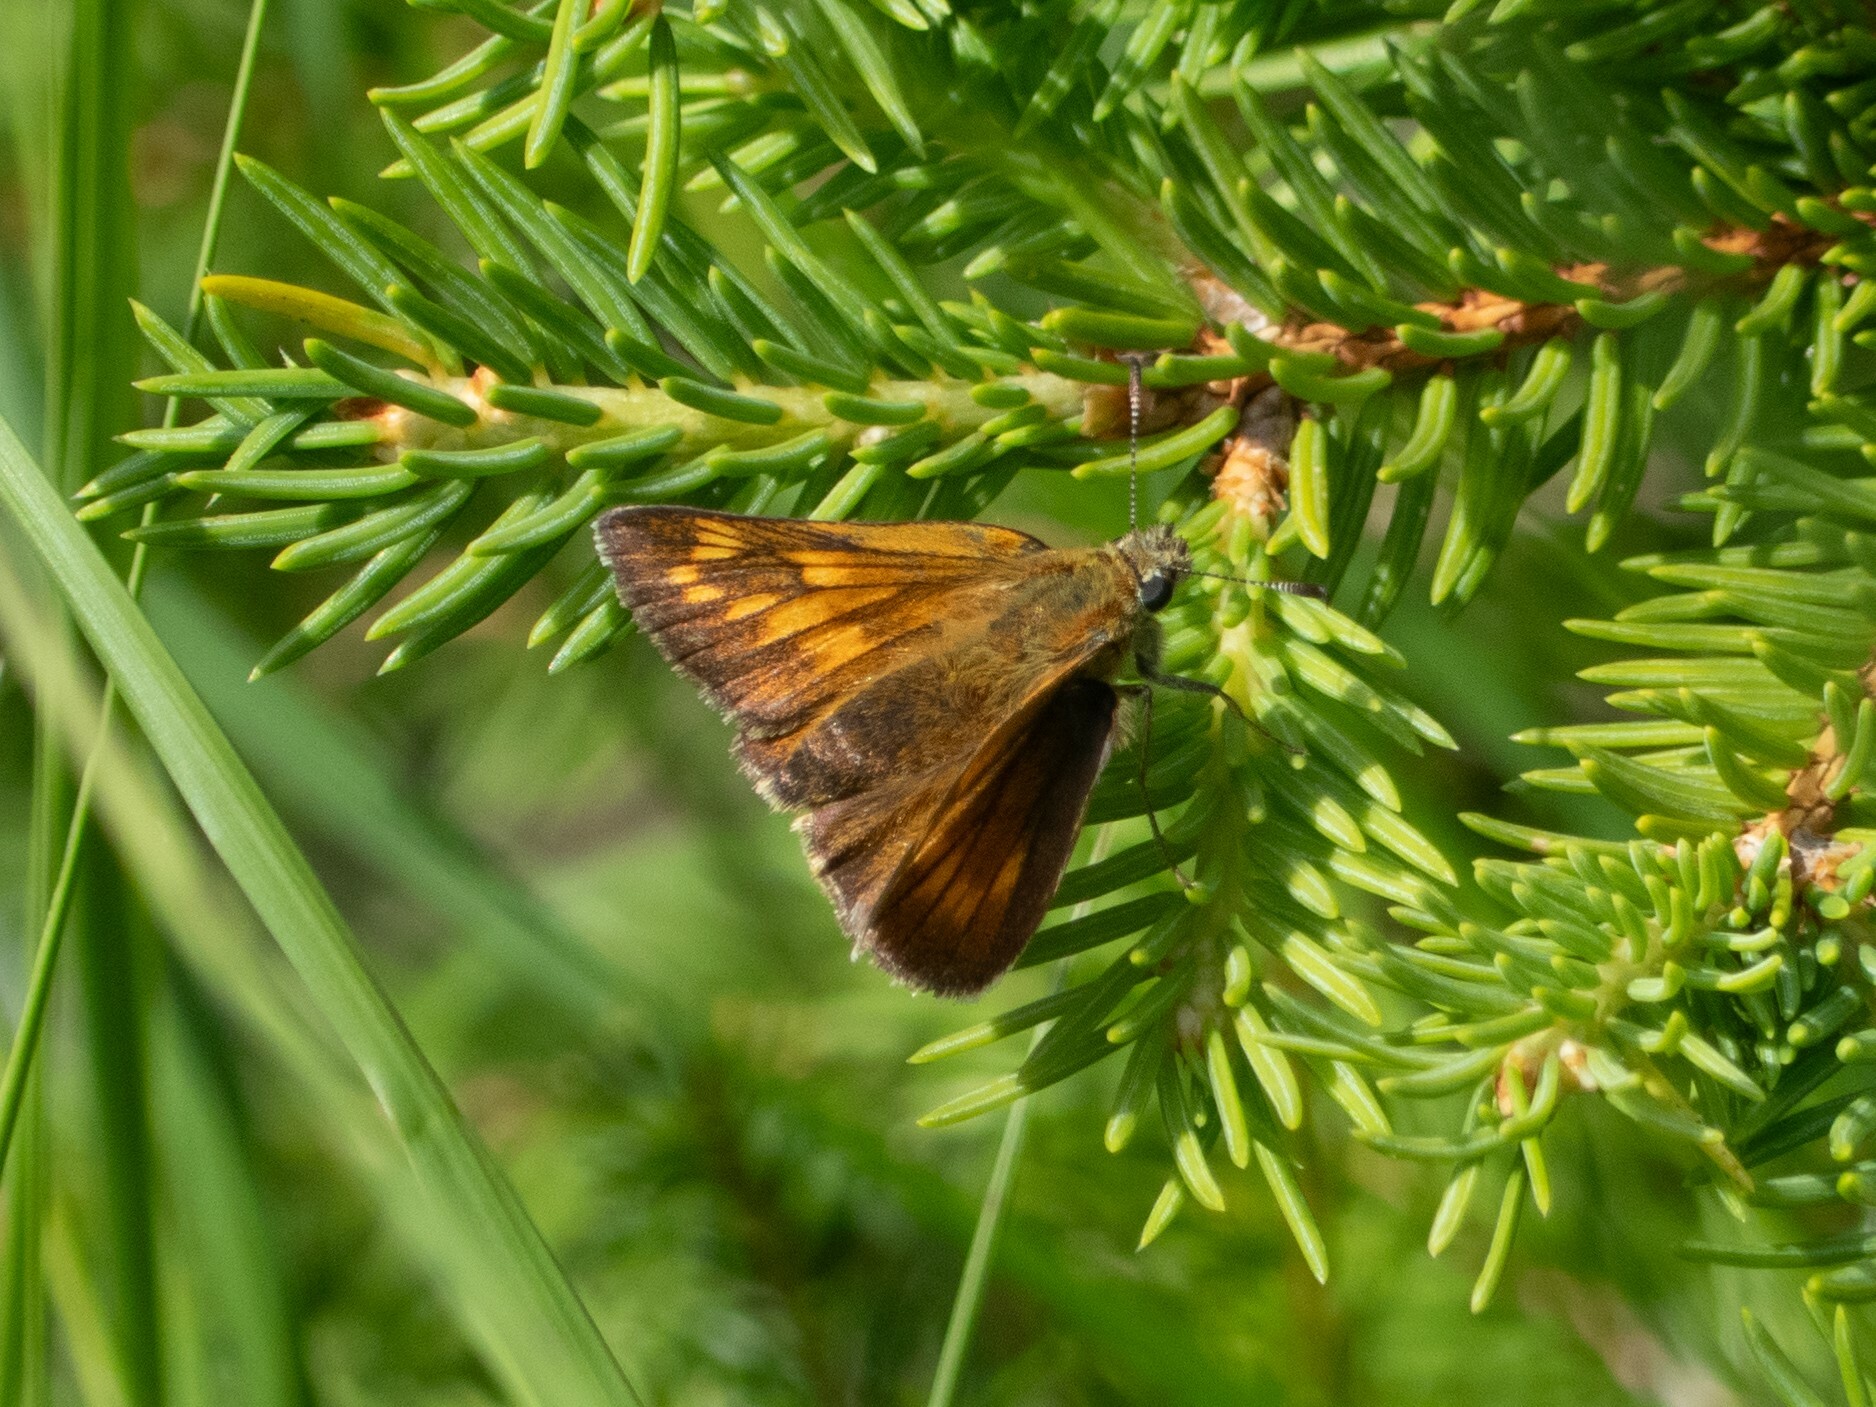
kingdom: Animalia
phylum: Arthropoda
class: Insecta
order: Lepidoptera
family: Hesperiidae
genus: Ochlodes
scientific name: Ochlodes venata
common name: Large skipper
